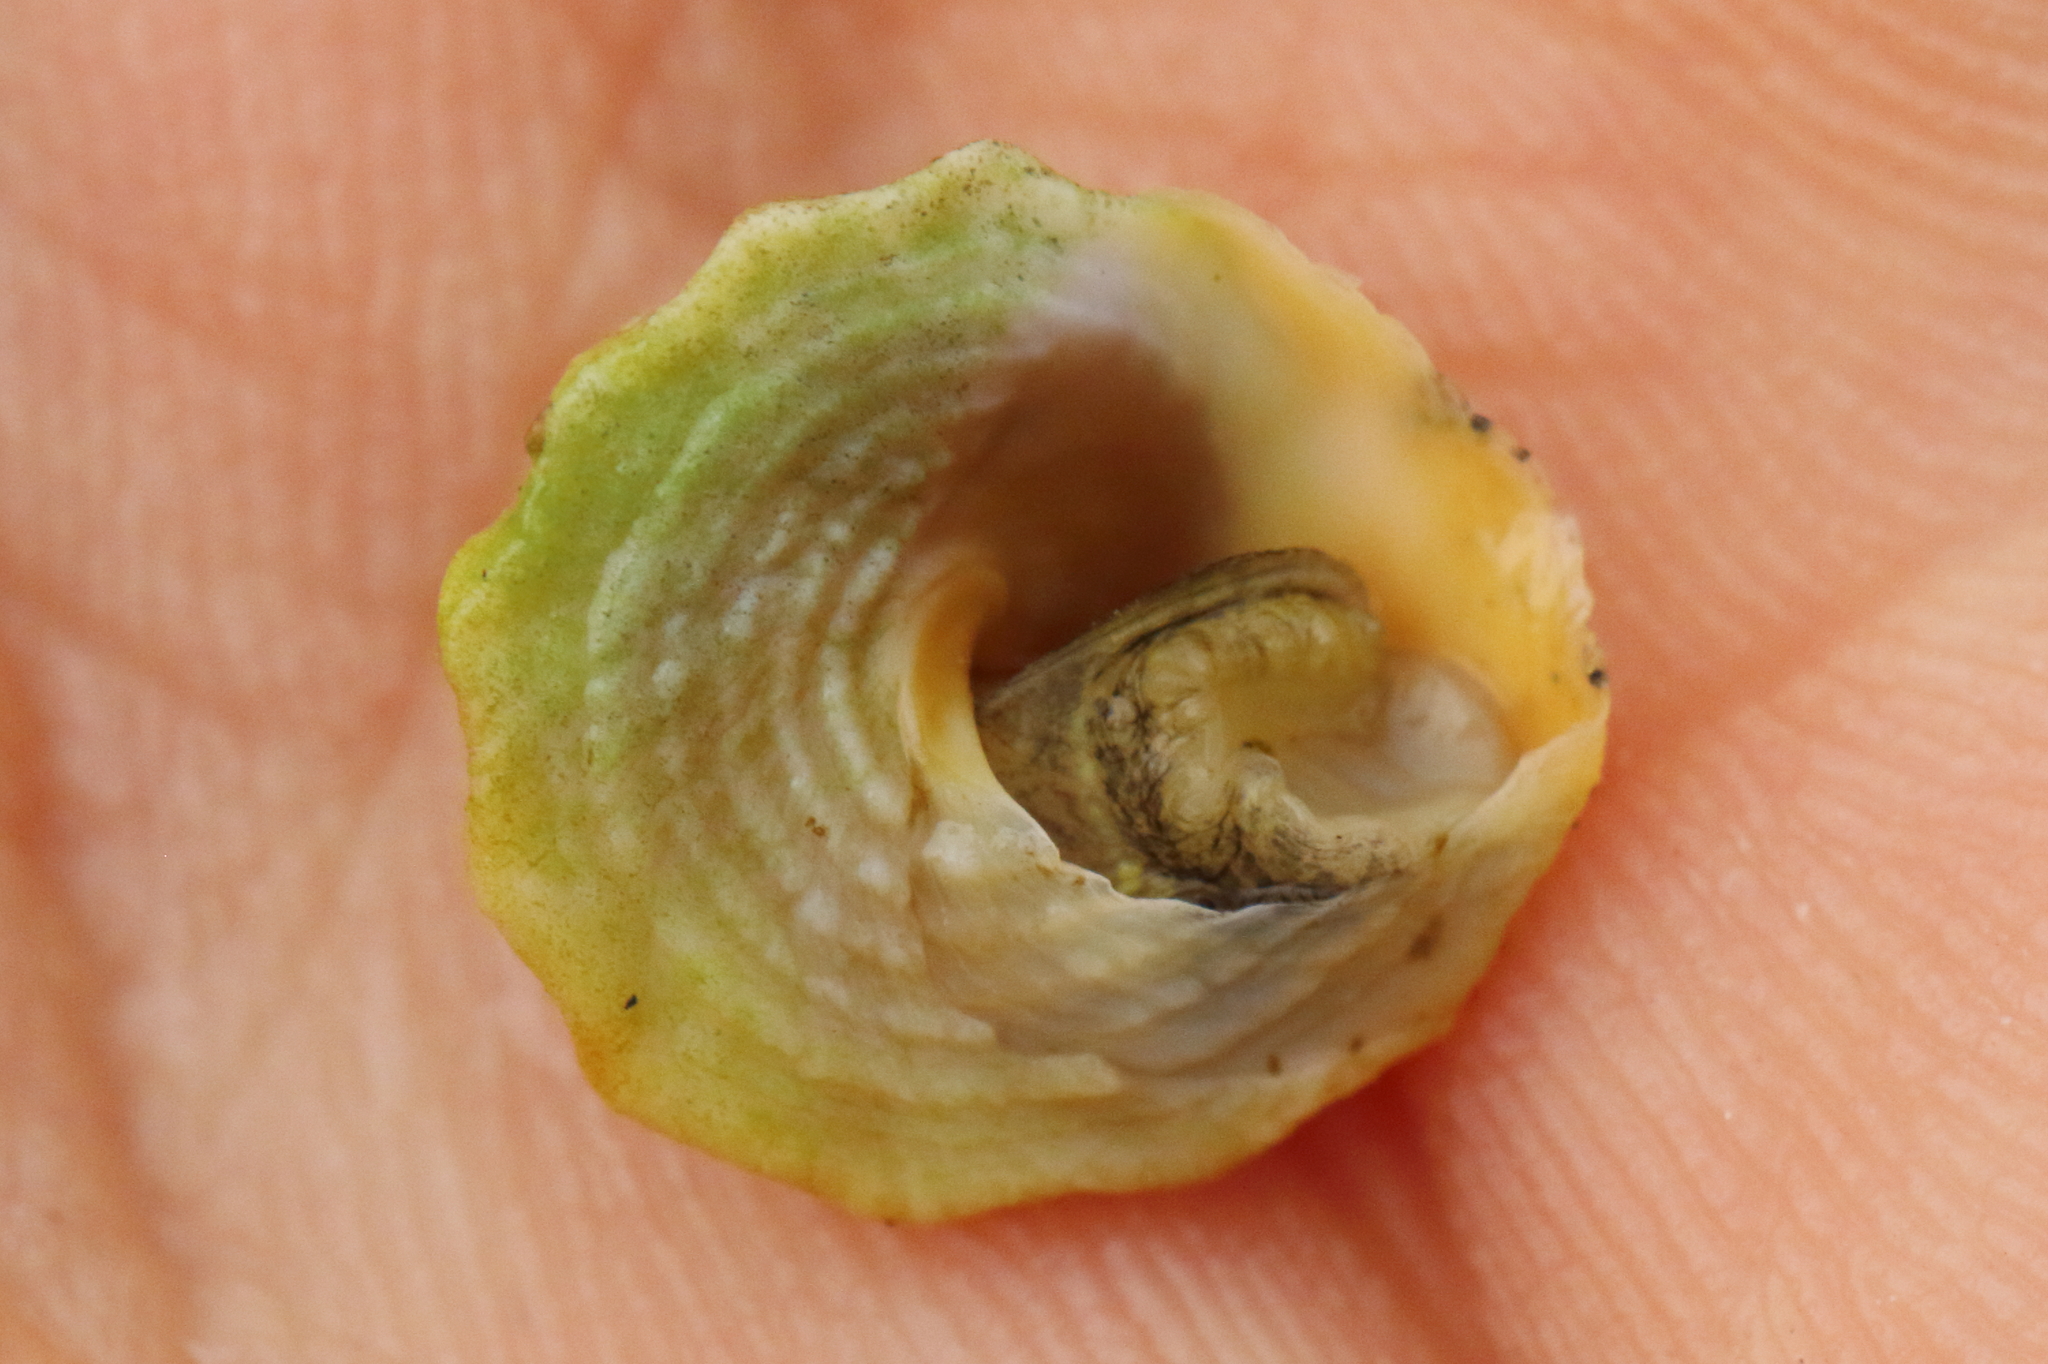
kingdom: Animalia
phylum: Mollusca
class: Gastropoda
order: Littorinimorpha
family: Littorinidae
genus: Bembicium
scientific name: Bembicium auratum
